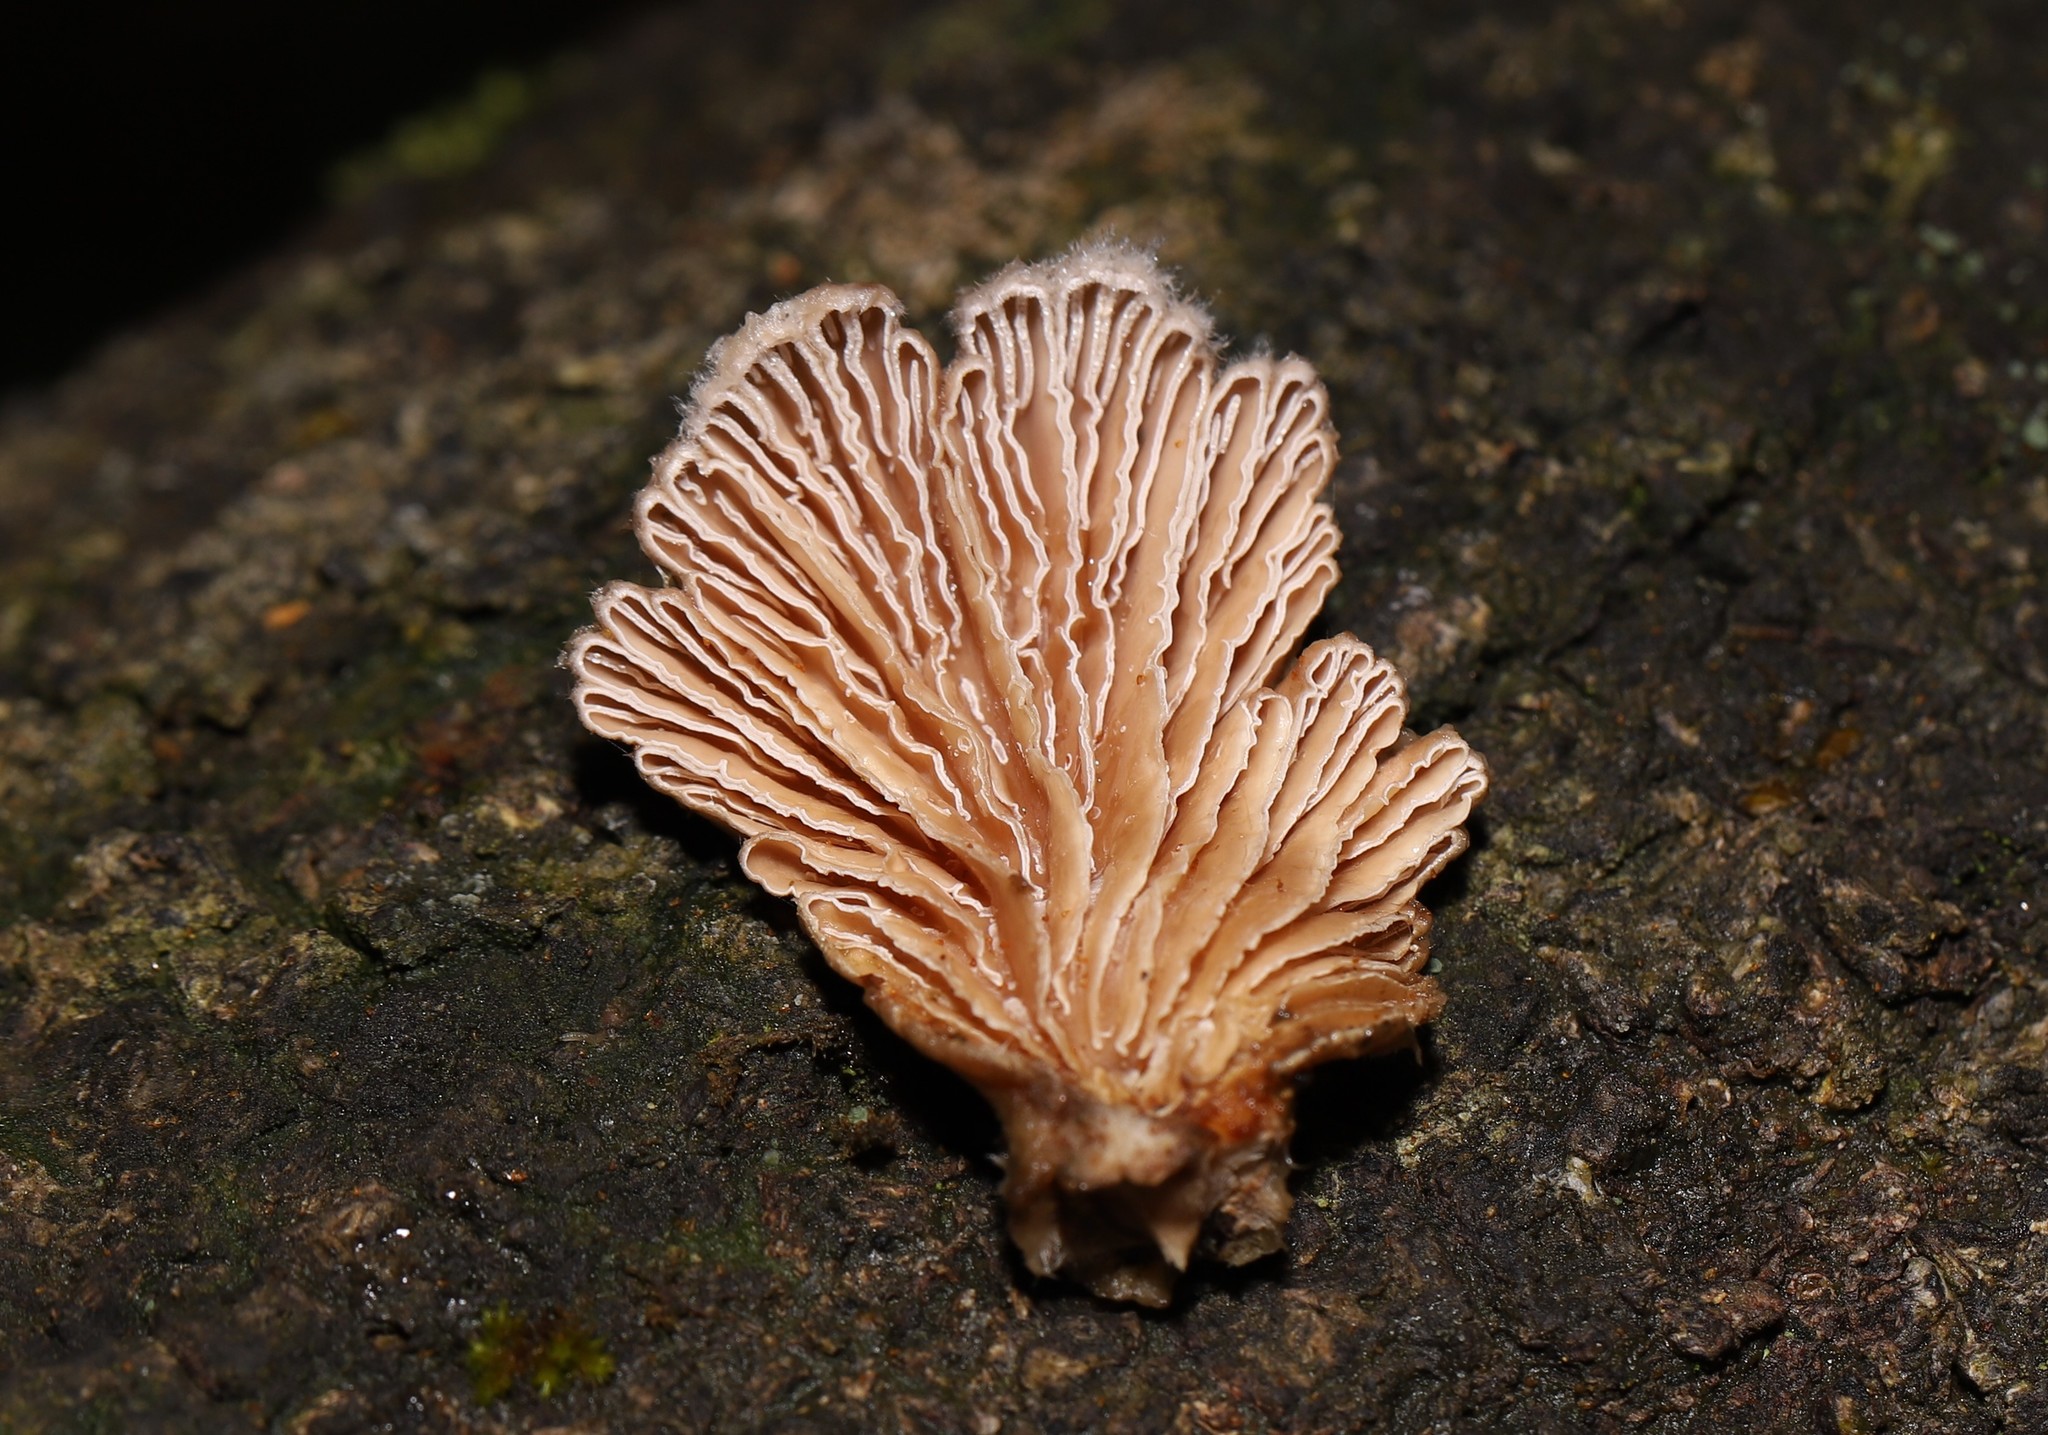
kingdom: Fungi
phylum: Basidiomycota
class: Agaricomycetes
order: Agaricales
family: Schizophyllaceae
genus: Schizophyllum
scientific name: Schizophyllum commune
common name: Common porecrust
